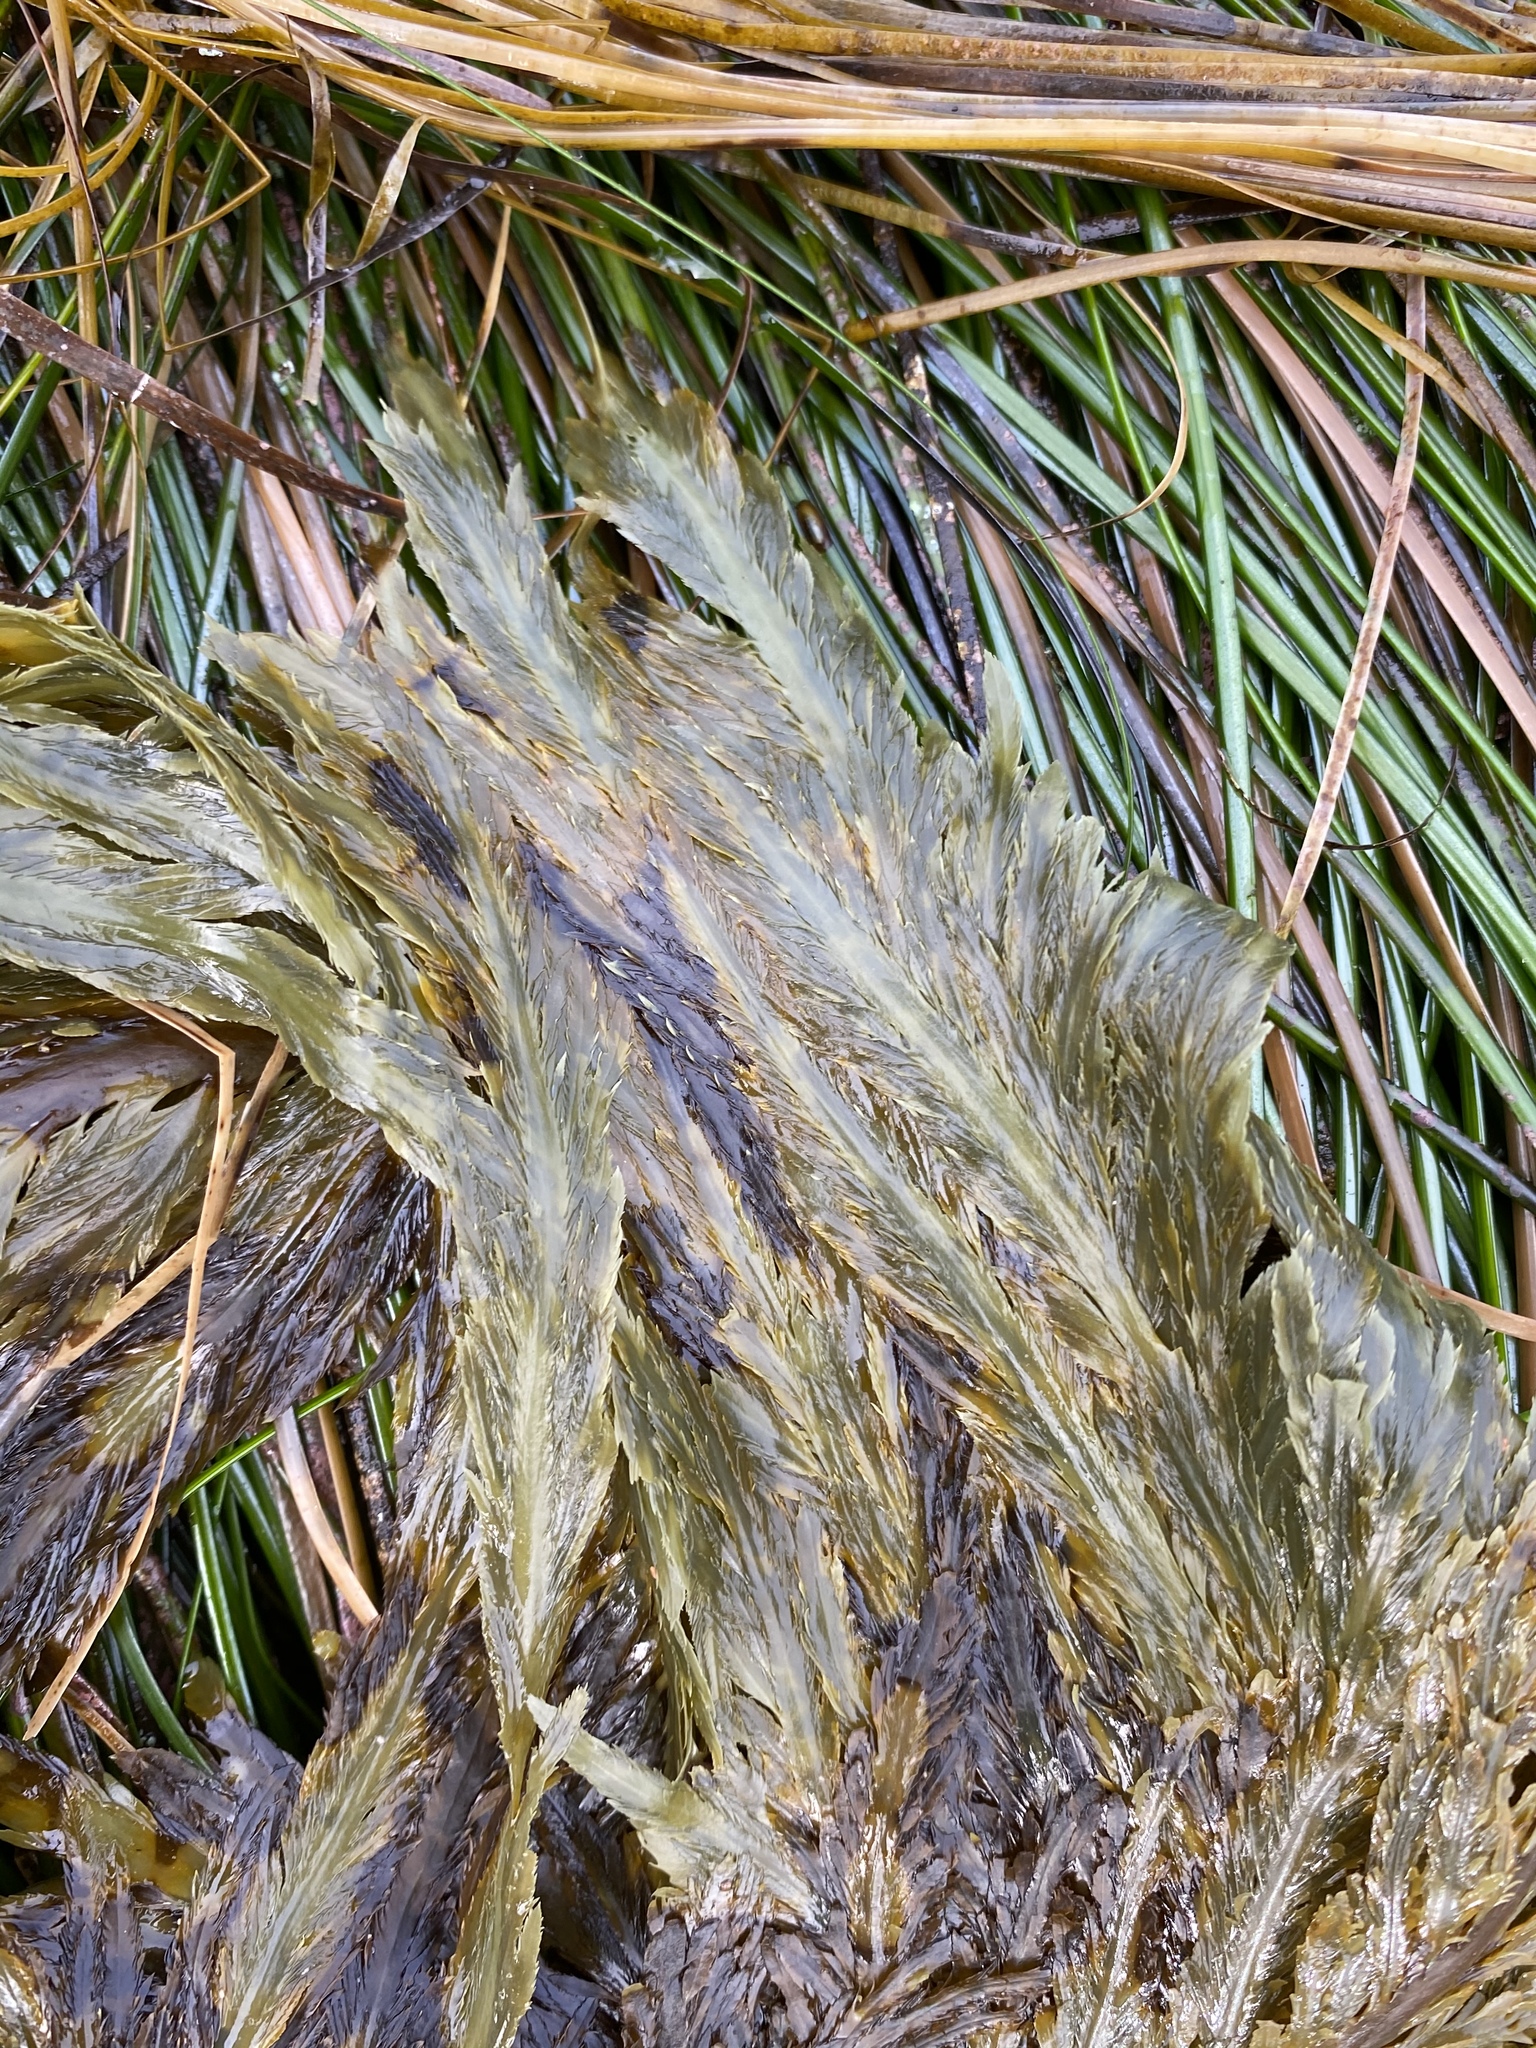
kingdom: Chromista
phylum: Ochrophyta
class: Phaeophyceae
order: Desmarestiales
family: Desmarestiaceae
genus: Desmarestia
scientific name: Desmarestia ligulata
